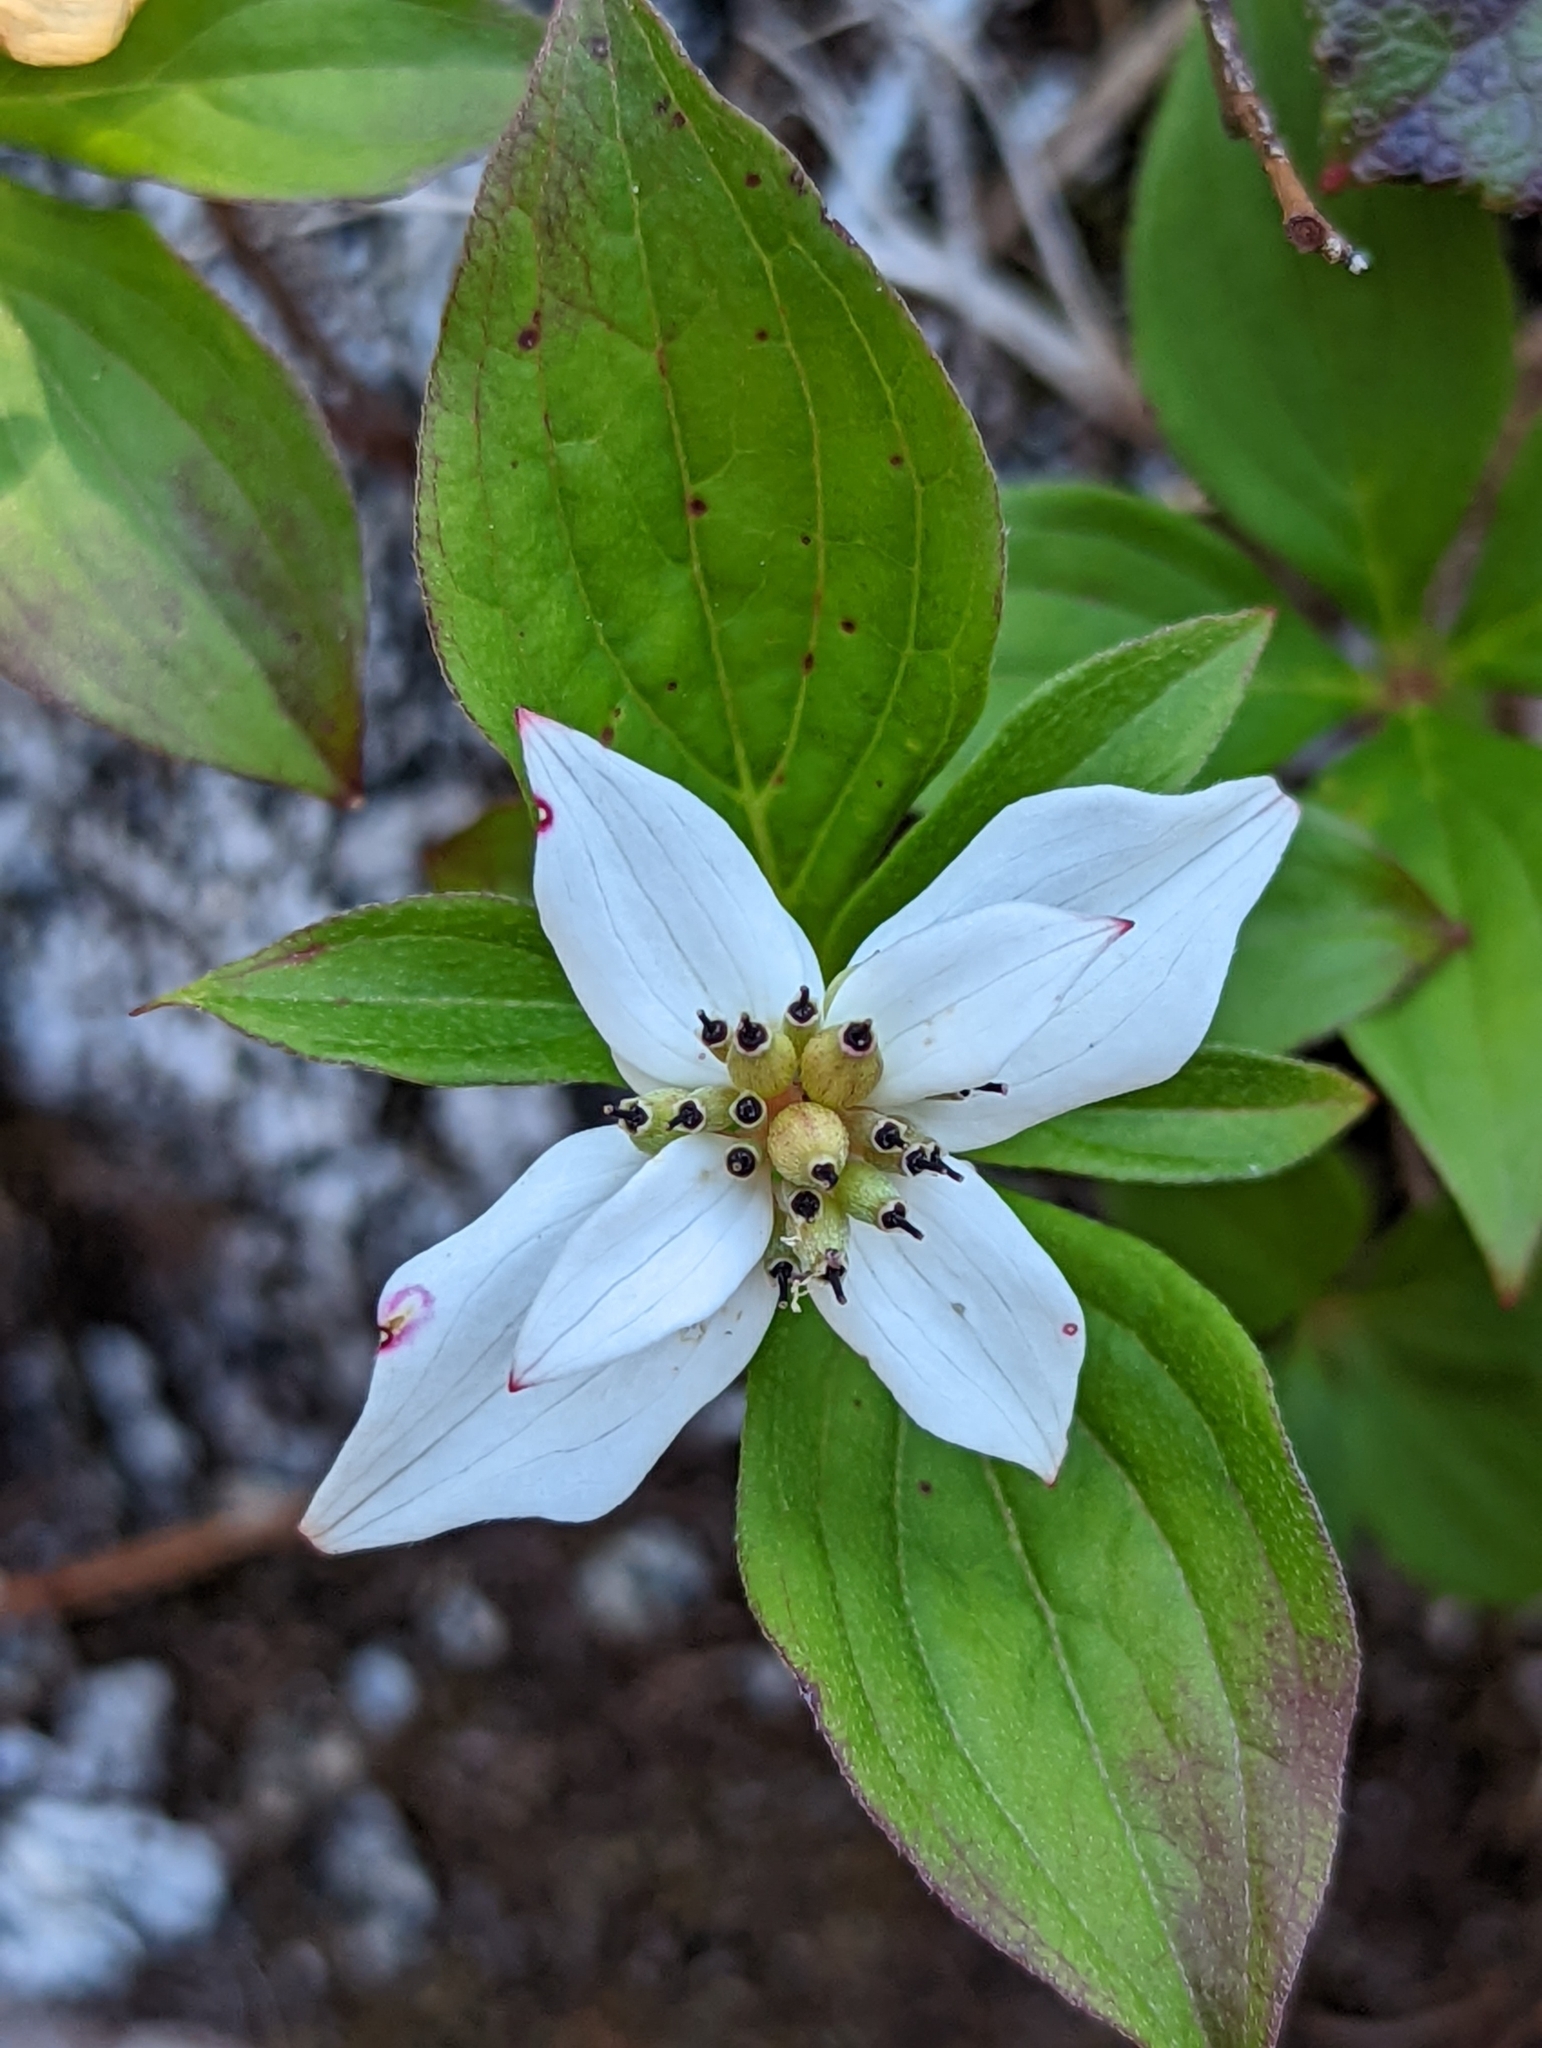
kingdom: Plantae
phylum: Tracheophyta
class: Magnoliopsida
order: Cornales
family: Cornaceae
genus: Cornus
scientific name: Cornus unalaschkensis
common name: Alaska bunchberry
